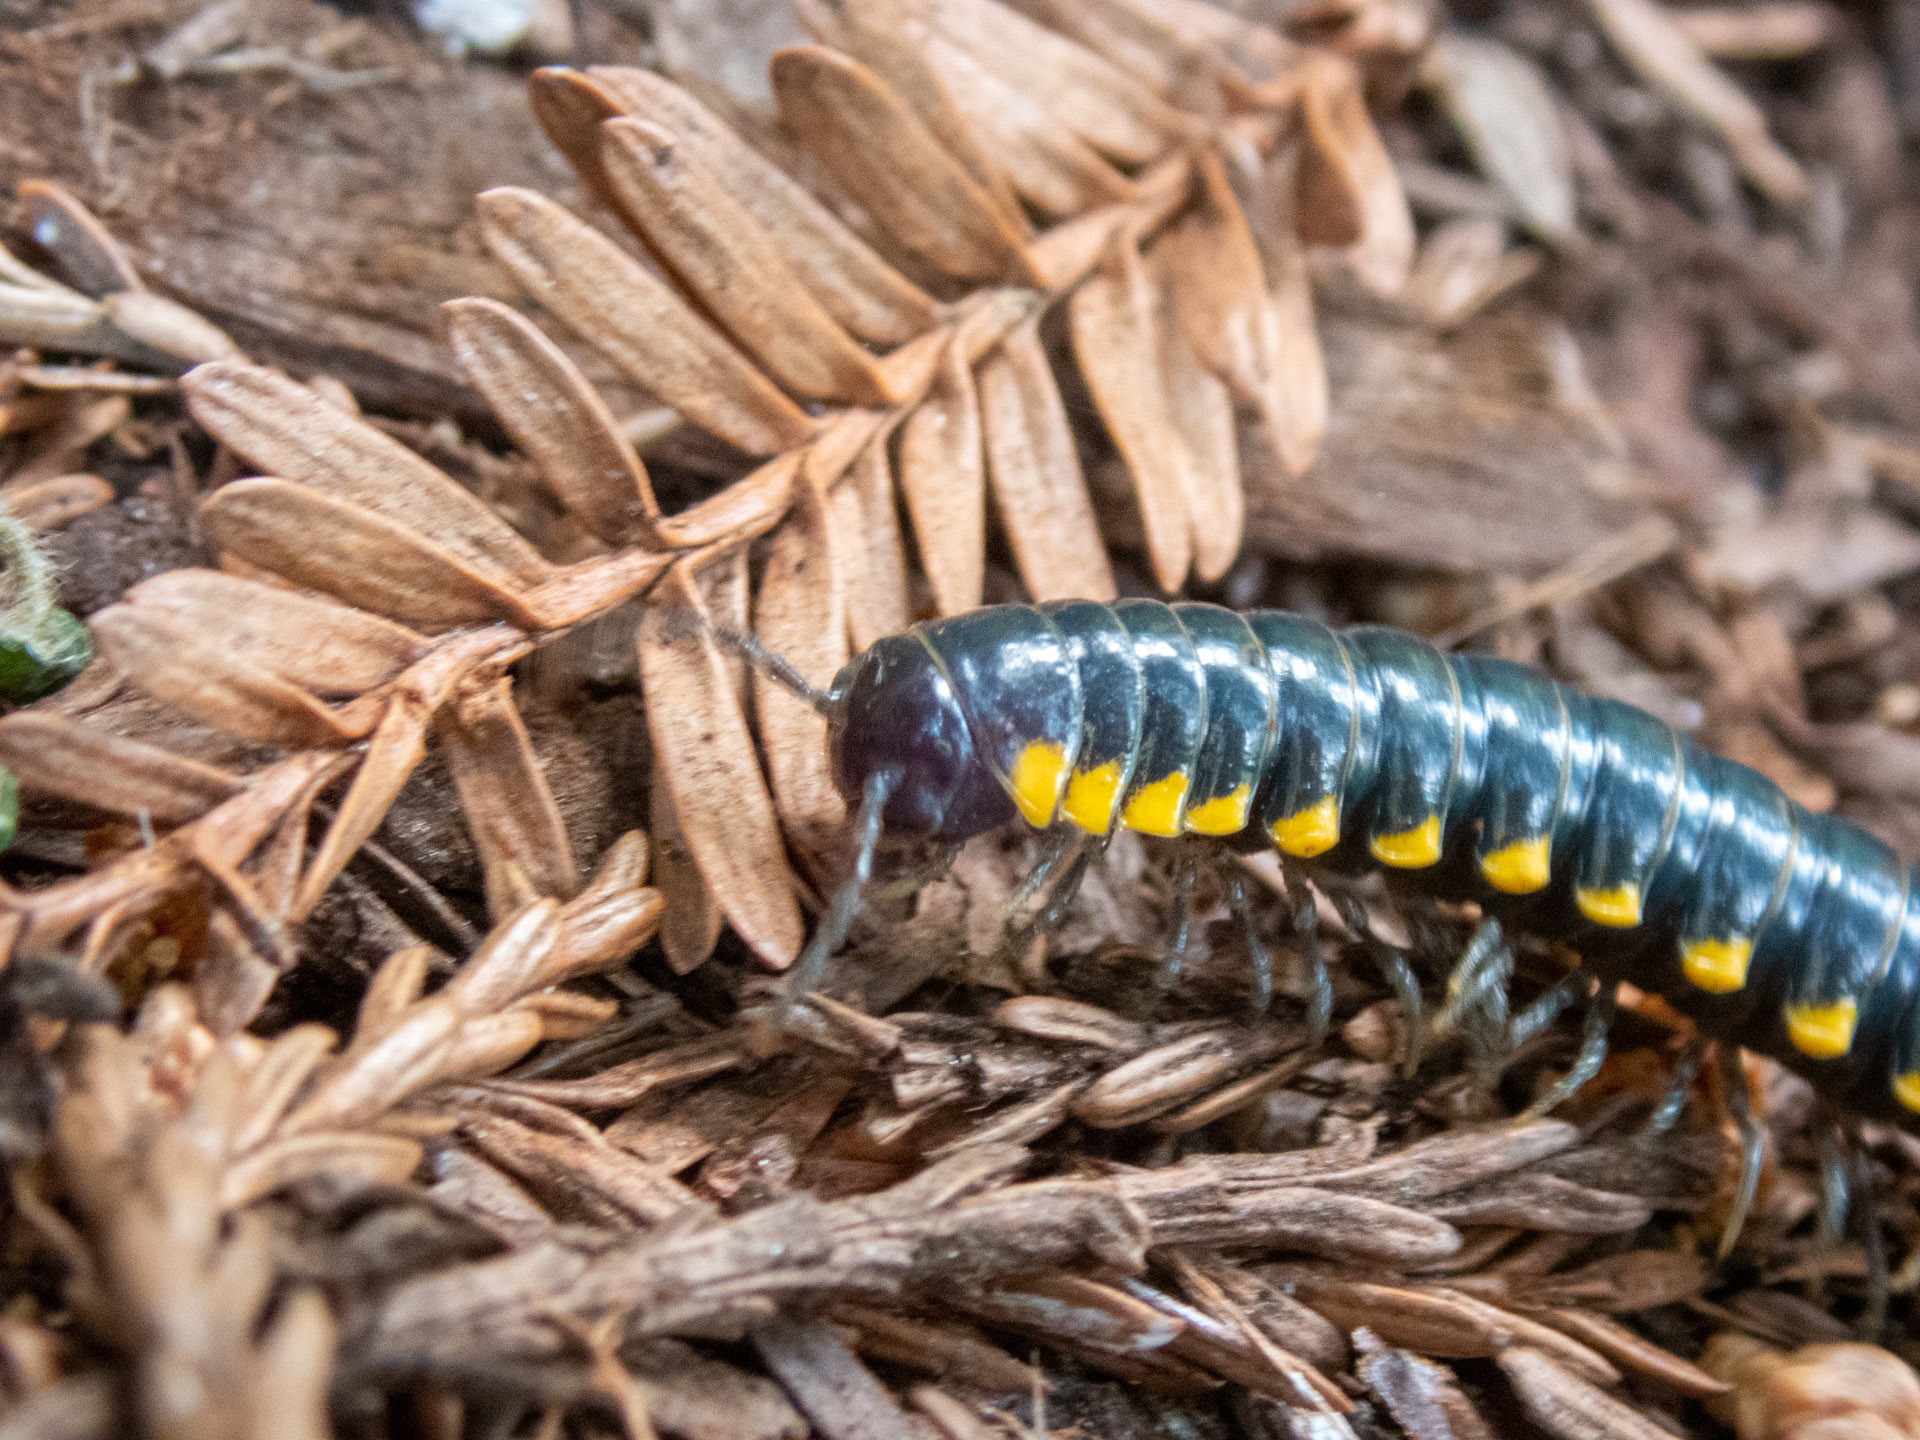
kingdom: Animalia
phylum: Arthropoda
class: Diplopoda
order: Polydesmida
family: Xystodesmidae
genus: Harpaphe
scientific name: Harpaphe haydeniana
